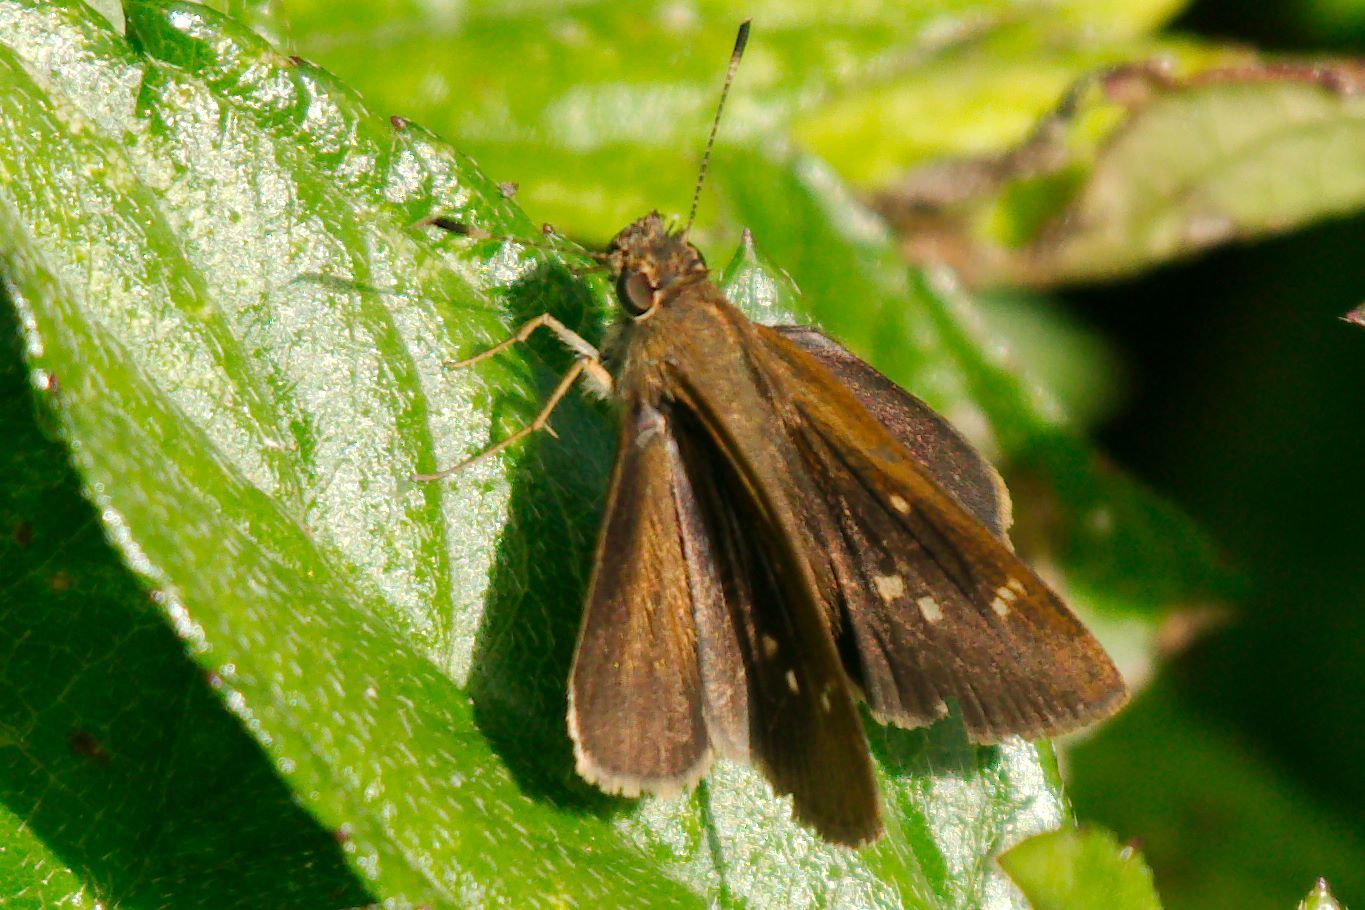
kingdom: Animalia
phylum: Arthropoda
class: Insecta
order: Lepidoptera
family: Hesperiidae
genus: Lerema
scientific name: Lerema accius
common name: Clouded skipper
